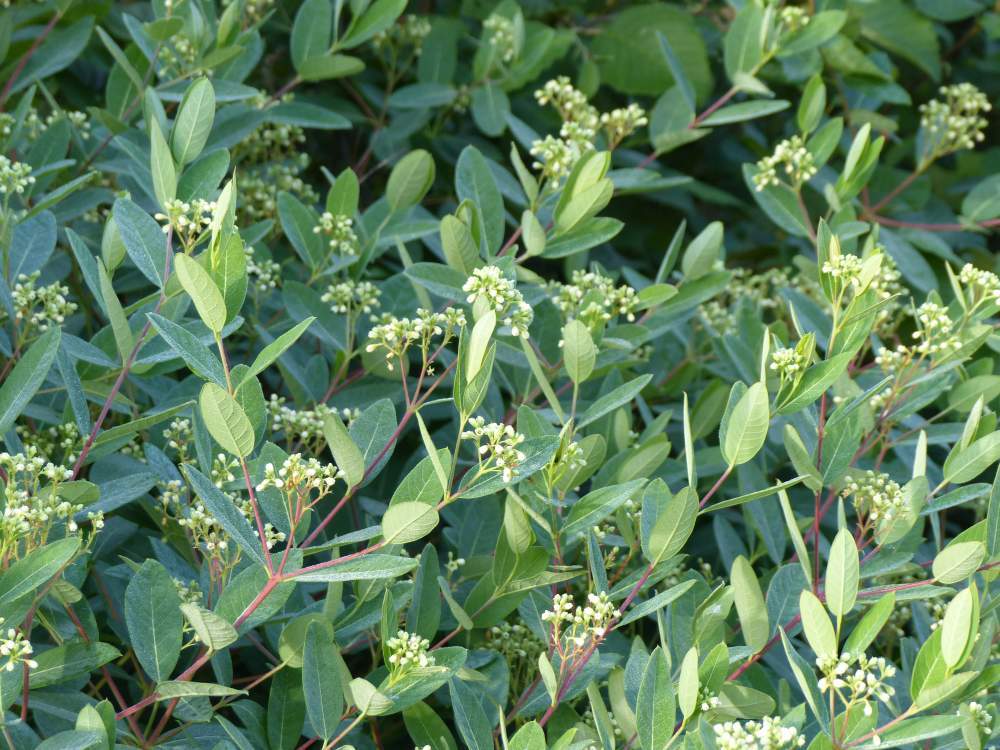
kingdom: Plantae
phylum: Tracheophyta
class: Magnoliopsida
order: Gentianales
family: Apocynaceae
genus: Apocynum
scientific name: Apocynum cannabinum
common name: Hemp dogbane
